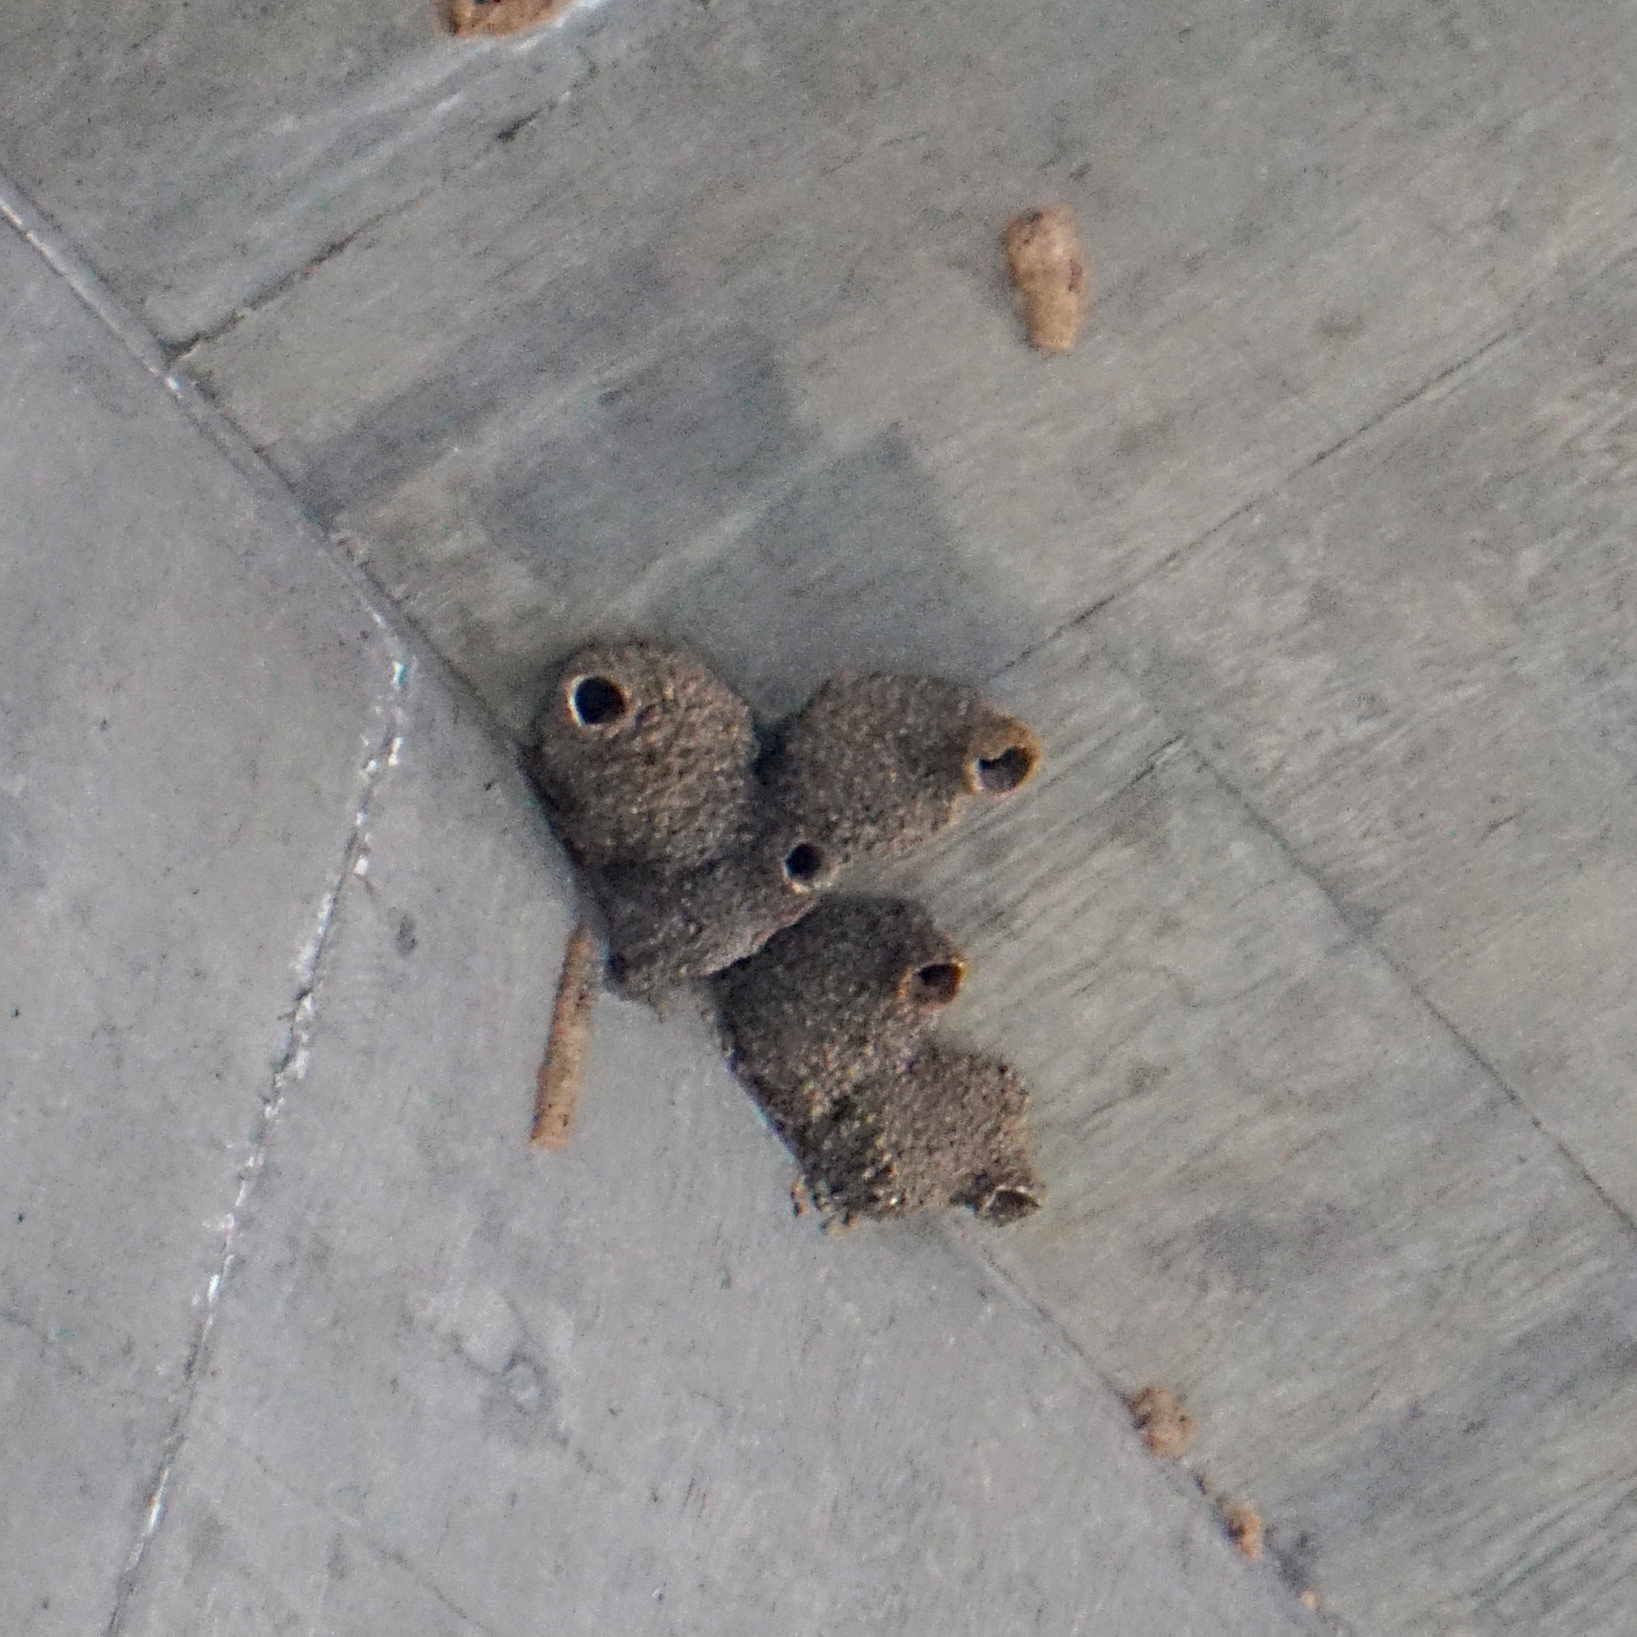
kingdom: Animalia
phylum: Chordata
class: Aves
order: Passeriformes
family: Hirundinidae
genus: Petrochelidon
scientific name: Petrochelidon pyrrhonota
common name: American cliff swallow
